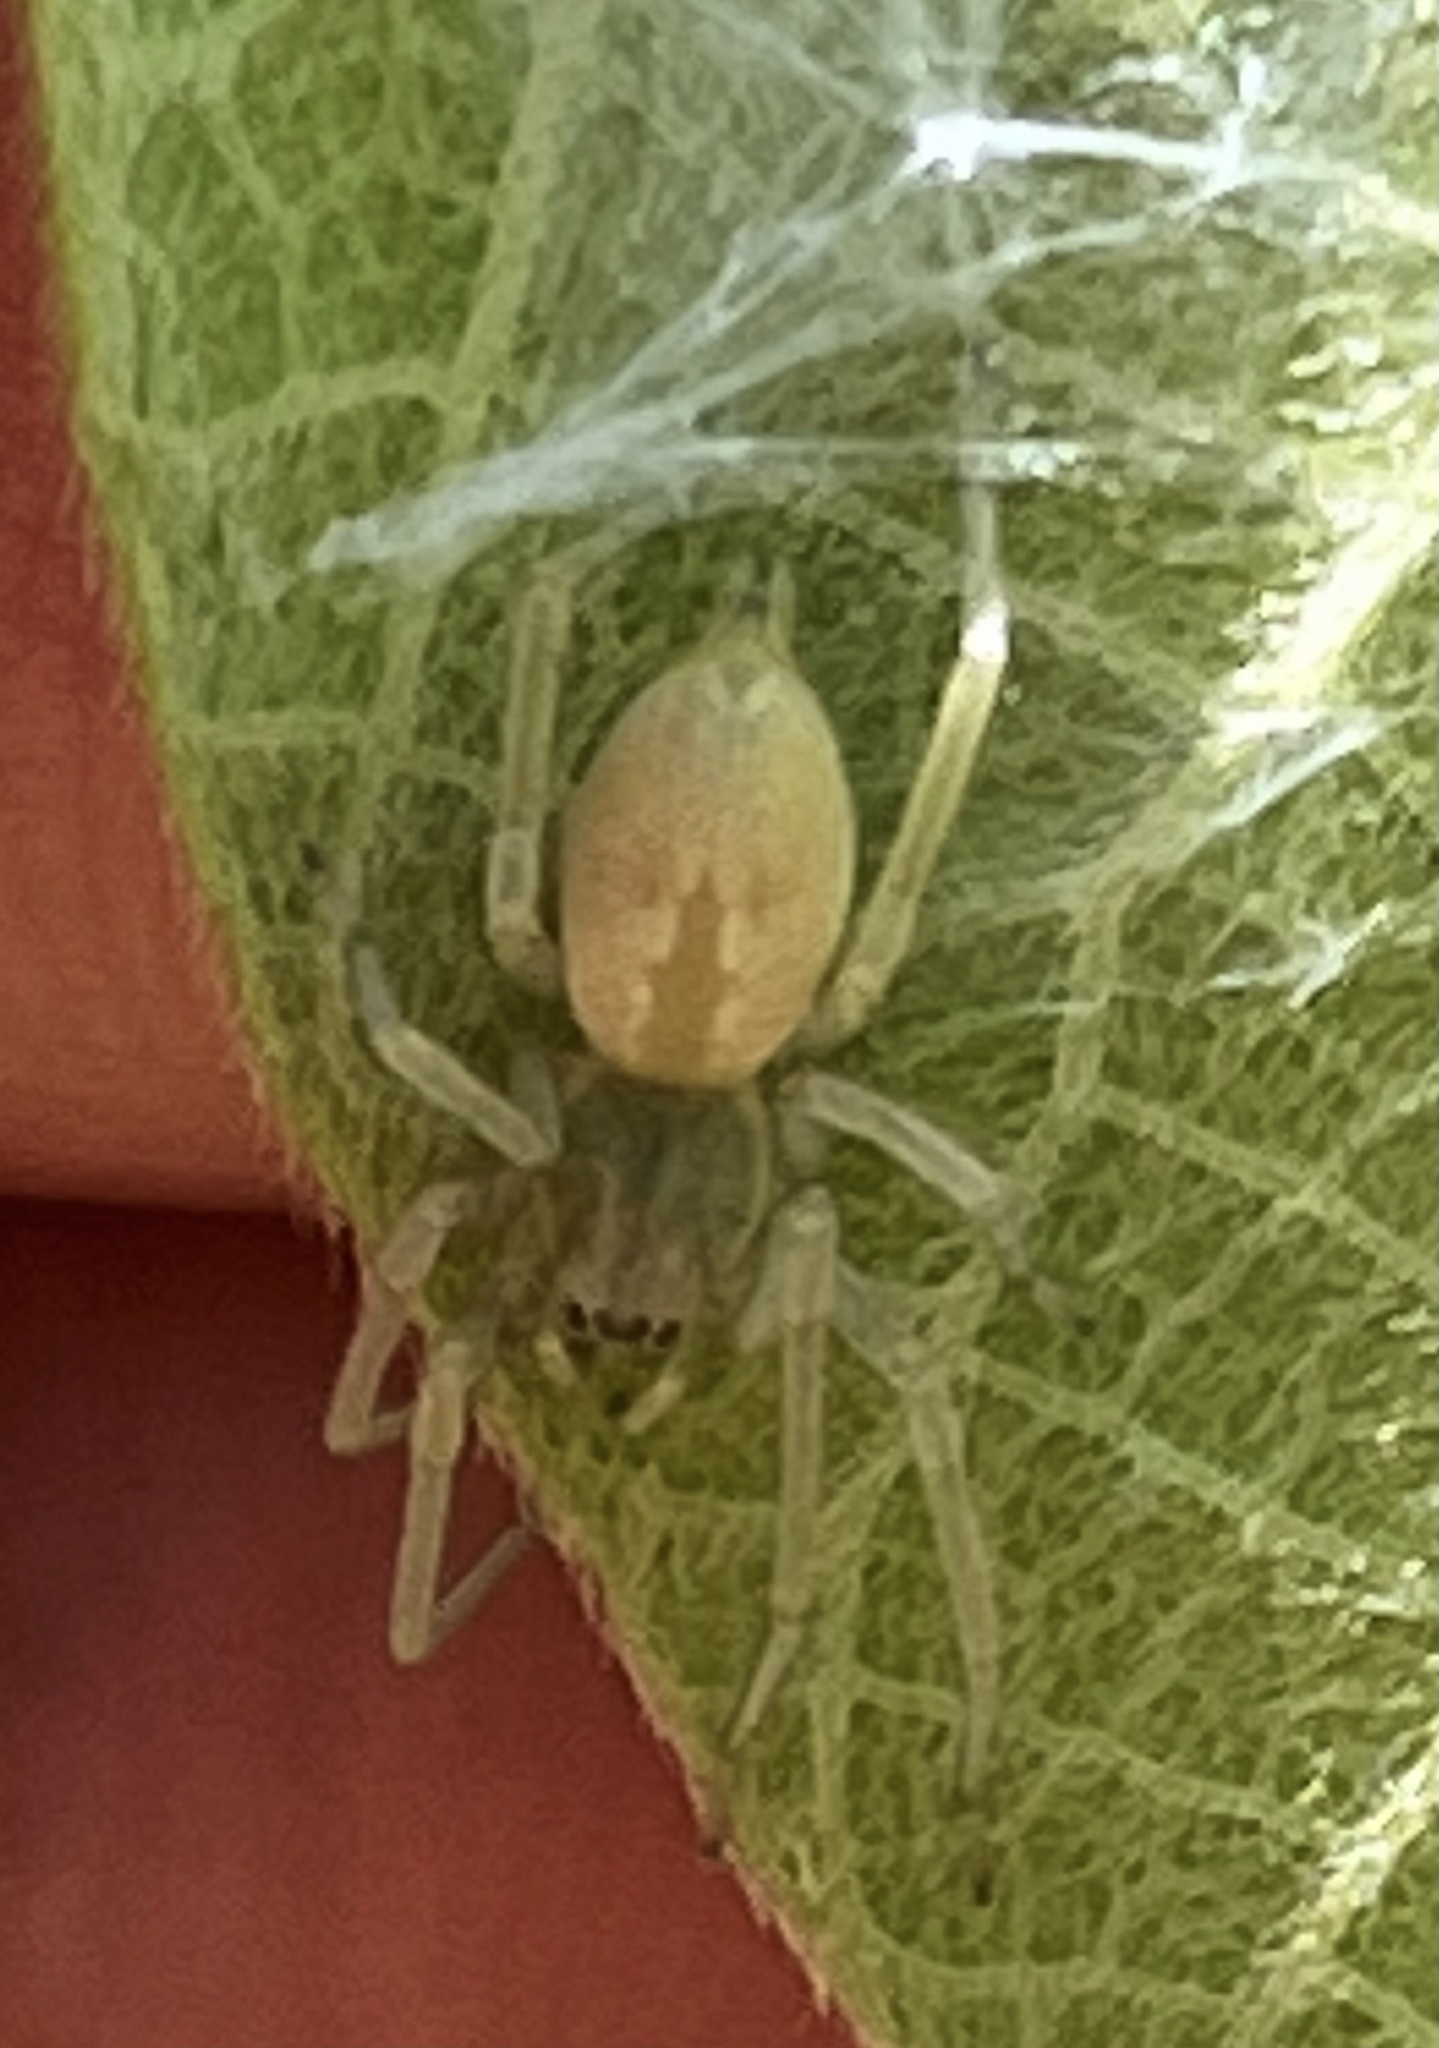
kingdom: Animalia
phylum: Arthropoda
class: Arachnida
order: Araneae
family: Cheiracanthiidae
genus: Cheiracanthium
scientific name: Cheiracanthium
